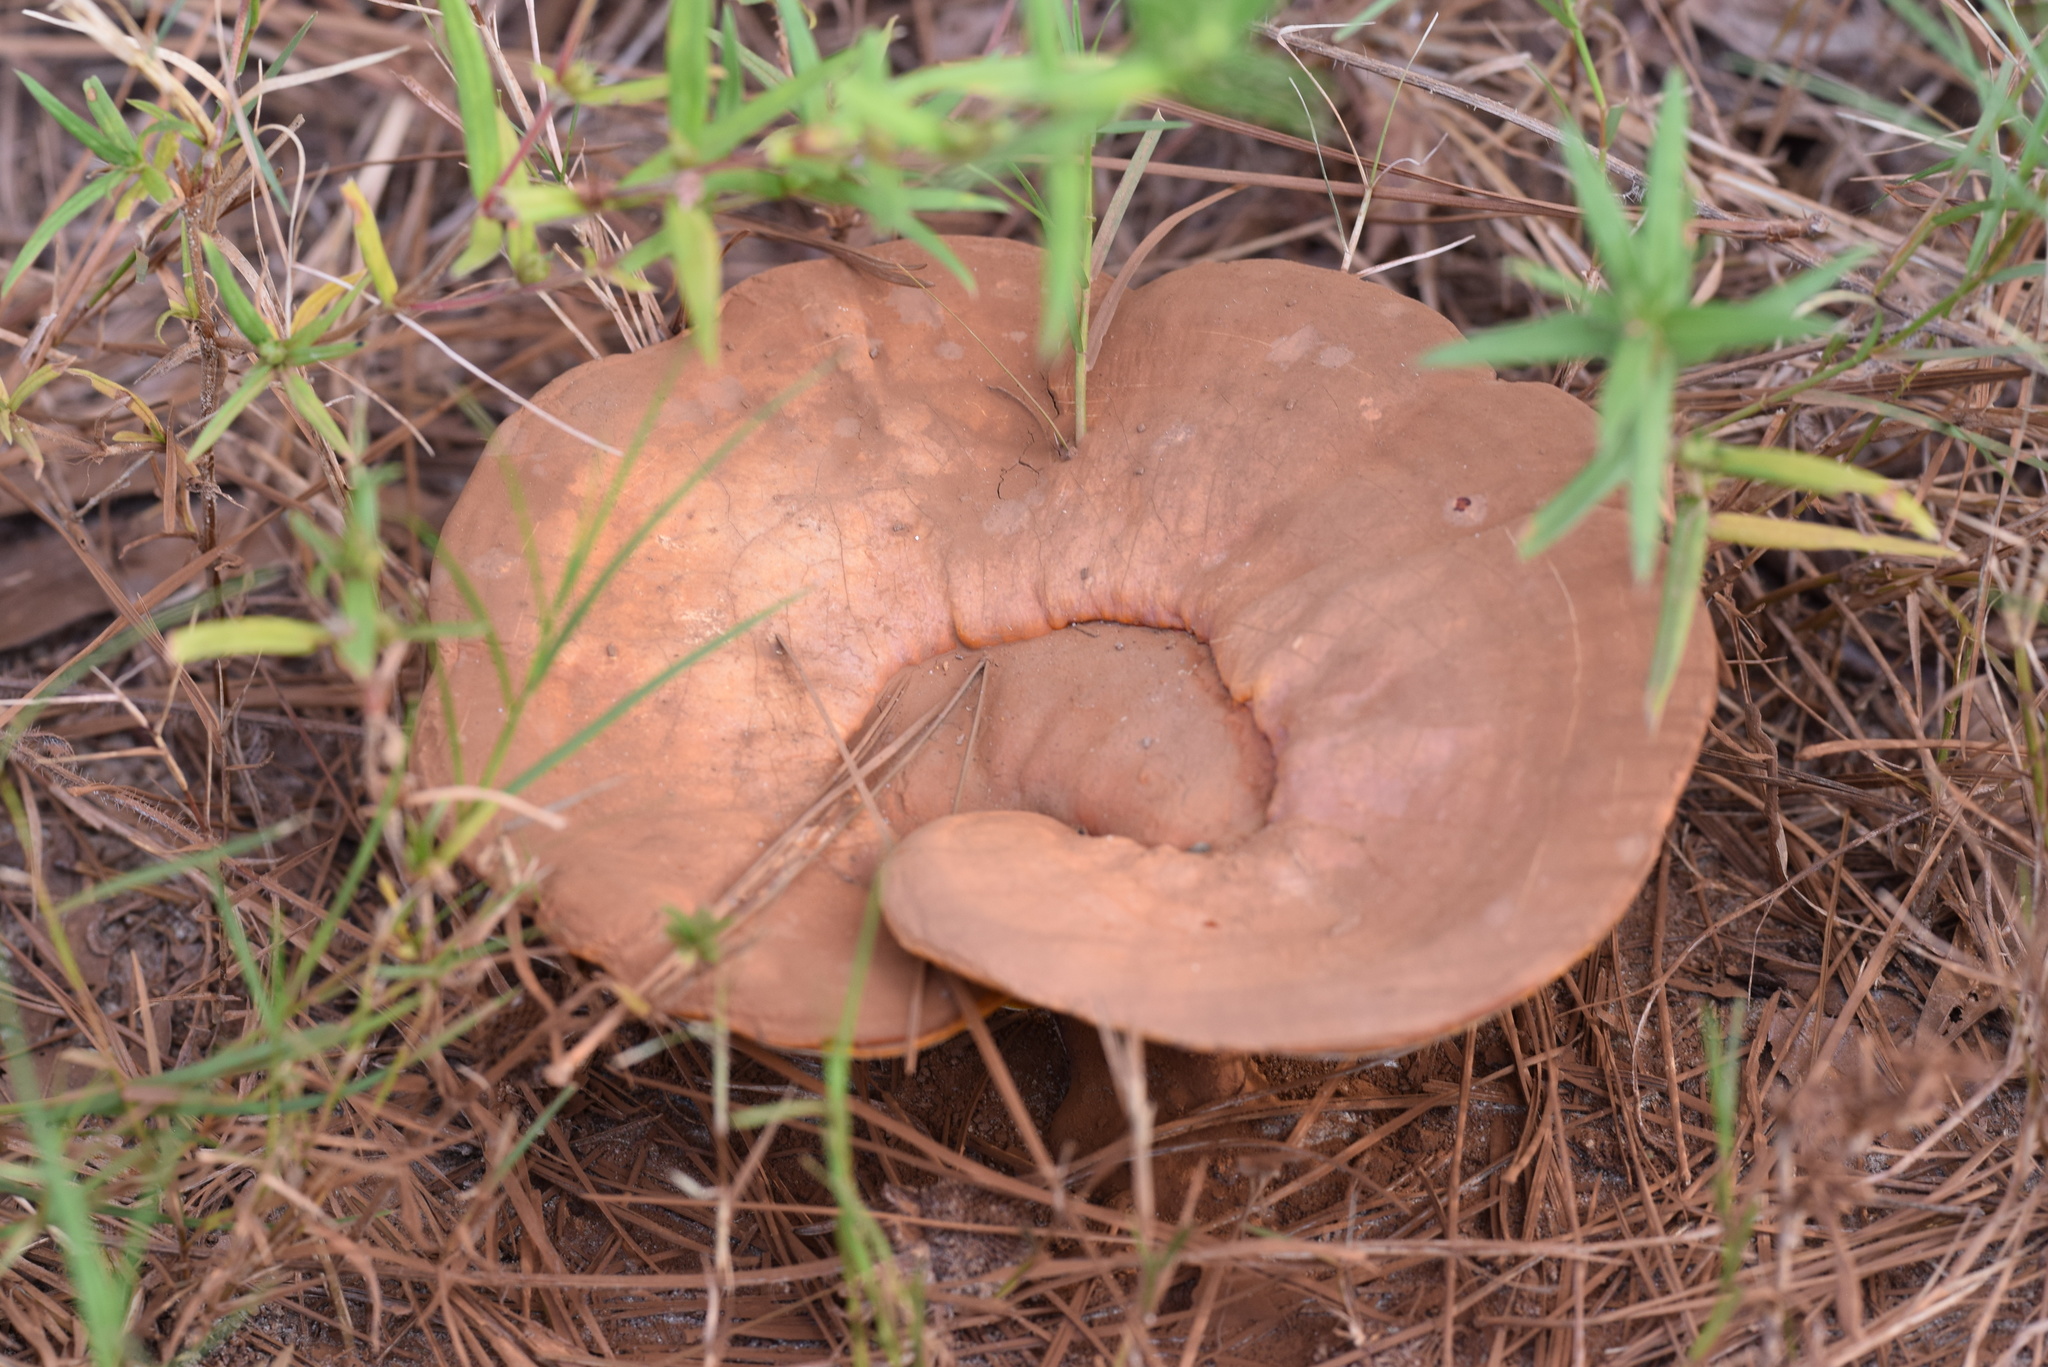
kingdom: Fungi
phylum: Basidiomycota
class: Agaricomycetes
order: Polyporales
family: Polyporaceae
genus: Ganoderma
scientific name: Ganoderma curtisii
